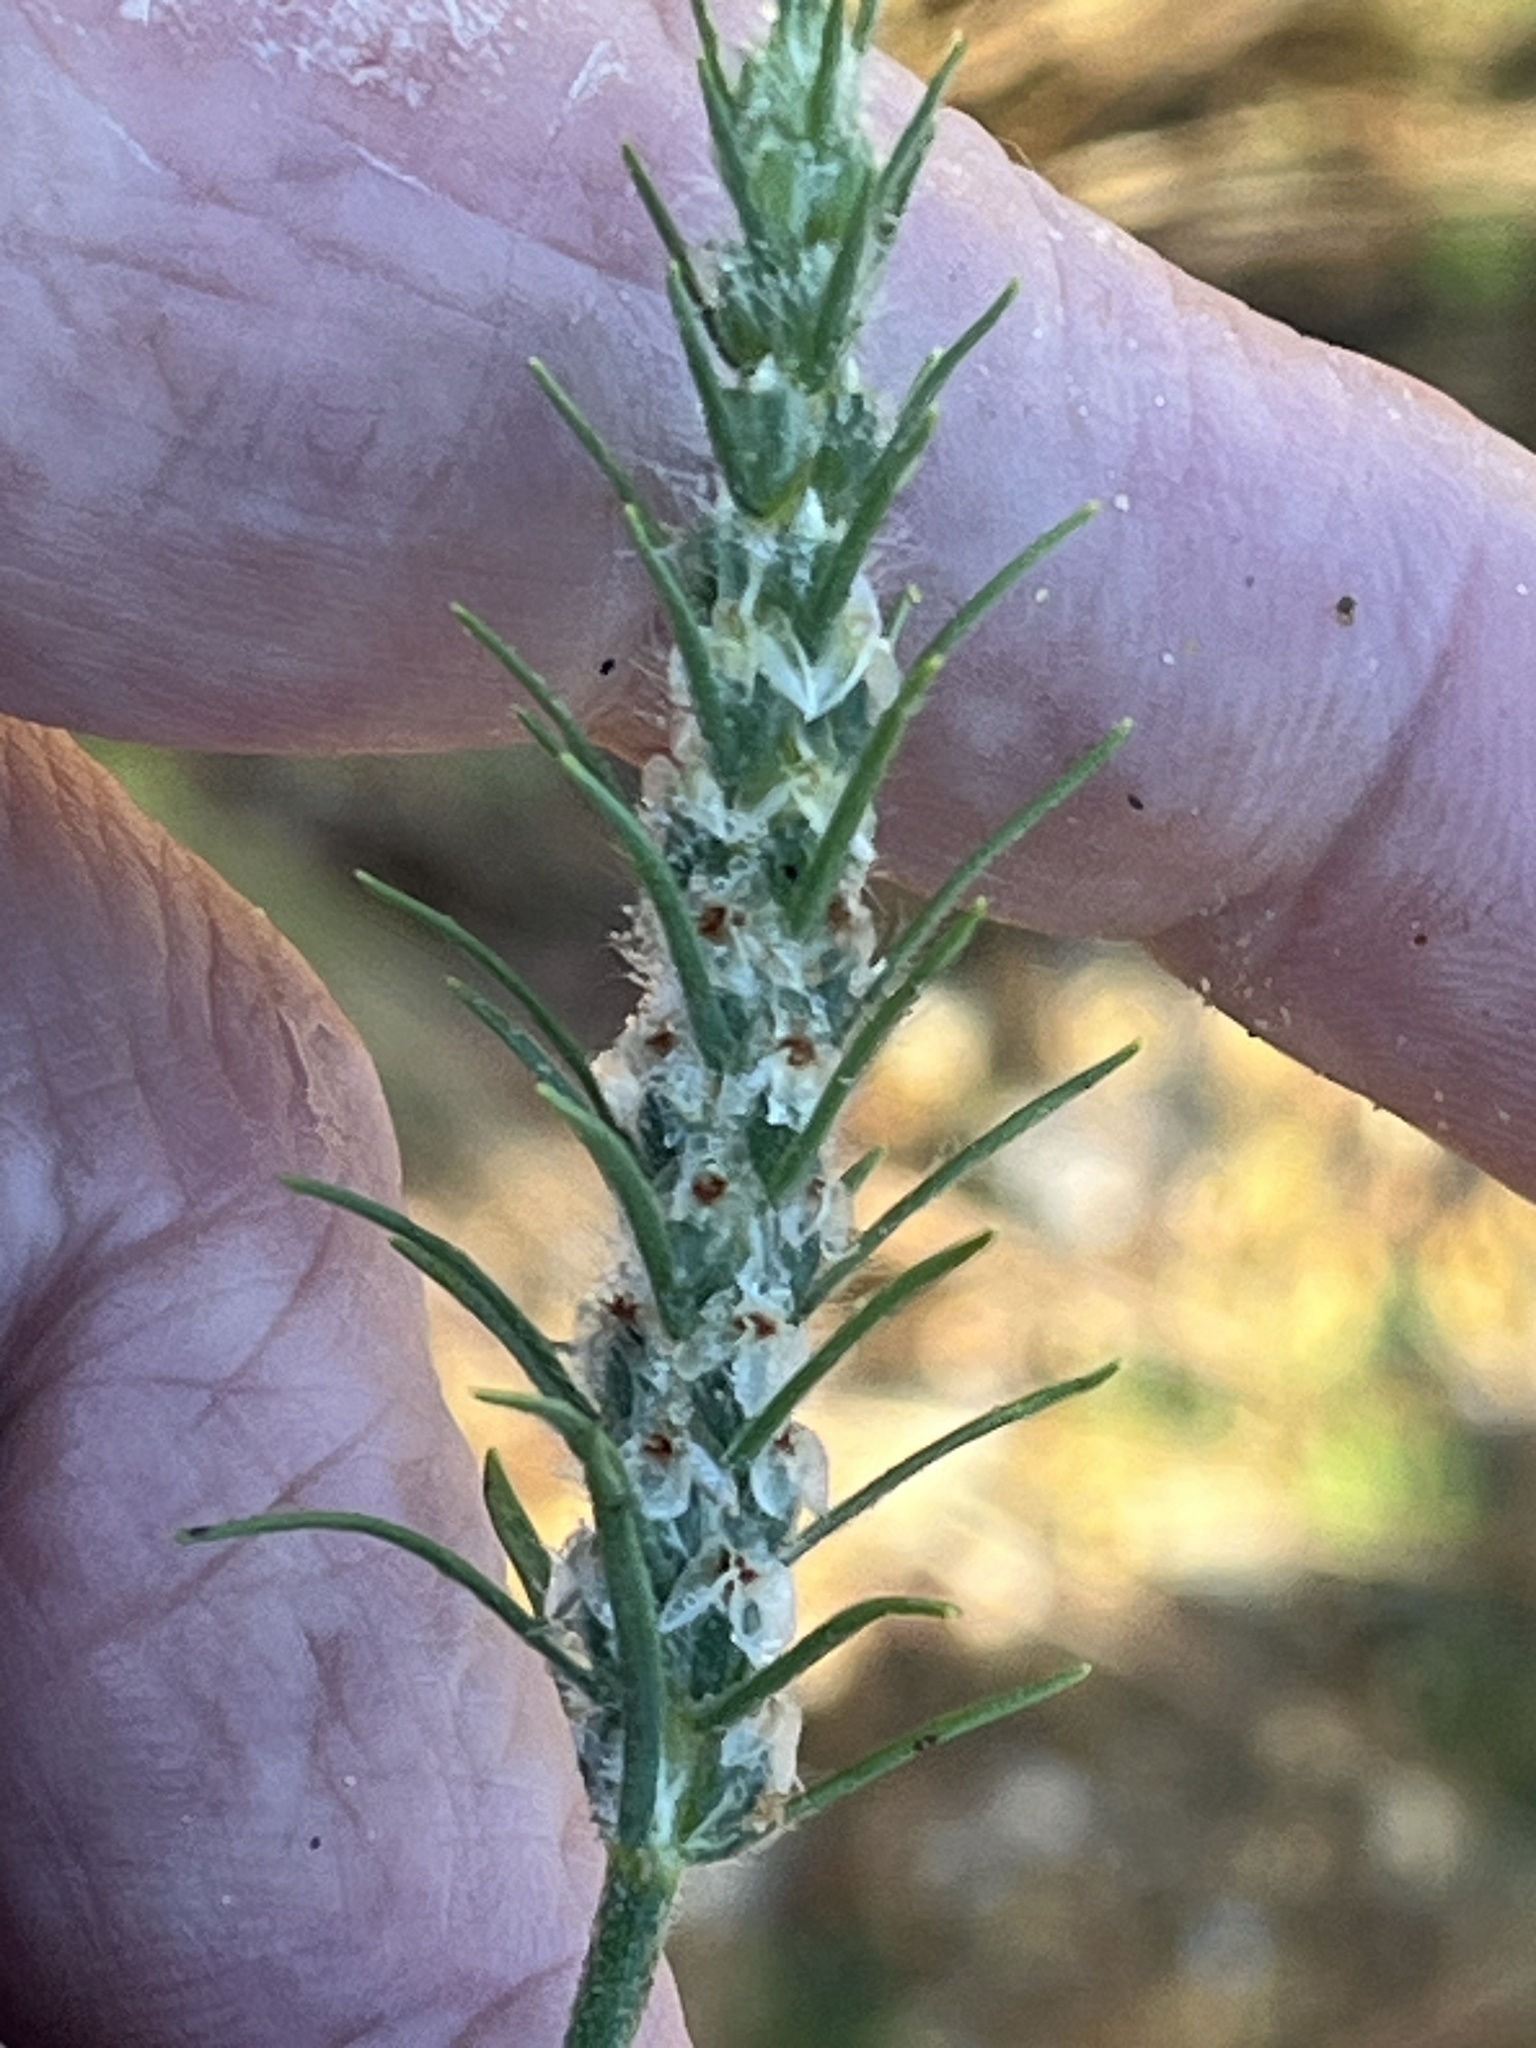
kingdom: Plantae
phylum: Tracheophyta
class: Magnoliopsida
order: Lamiales
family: Plantaginaceae
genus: Plantago
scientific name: Plantago aristata
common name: Bracted plantain
